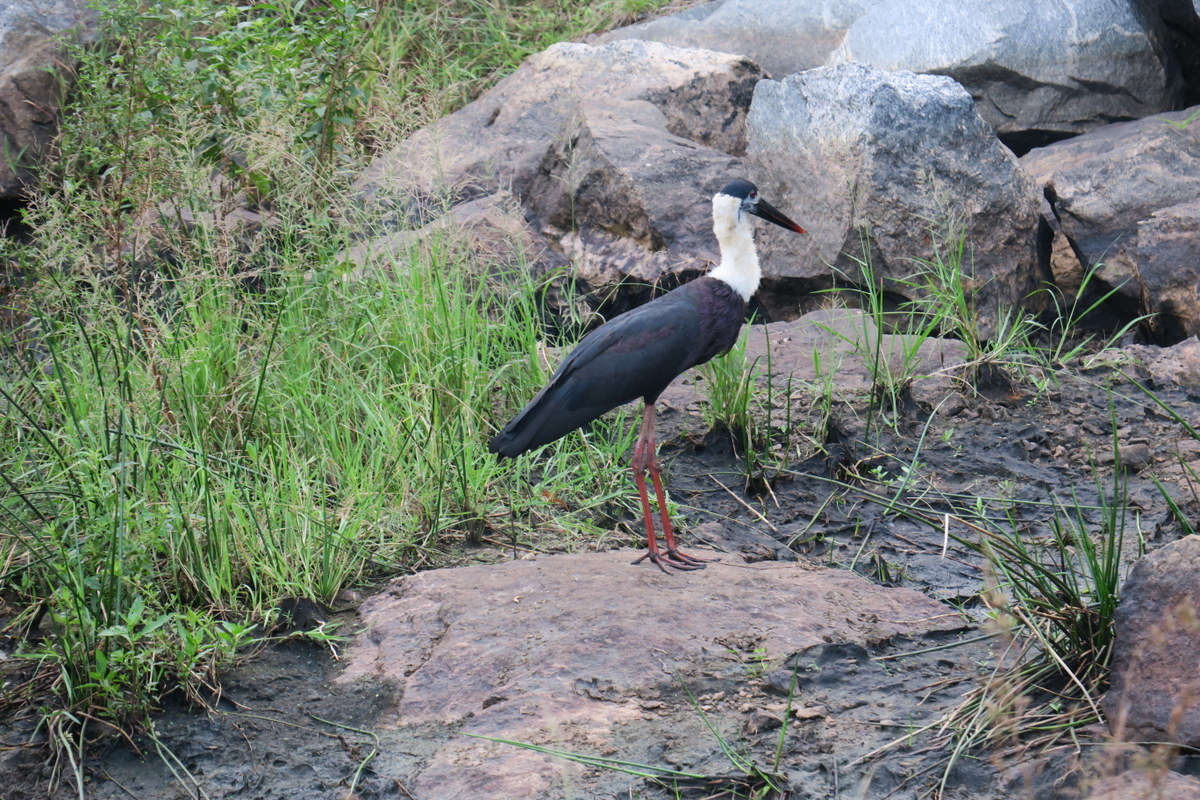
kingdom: Animalia
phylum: Chordata
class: Aves
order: Ciconiiformes
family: Ciconiidae
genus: Ciconia
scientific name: Ciconia episcopus
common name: Woolly-necked stork
